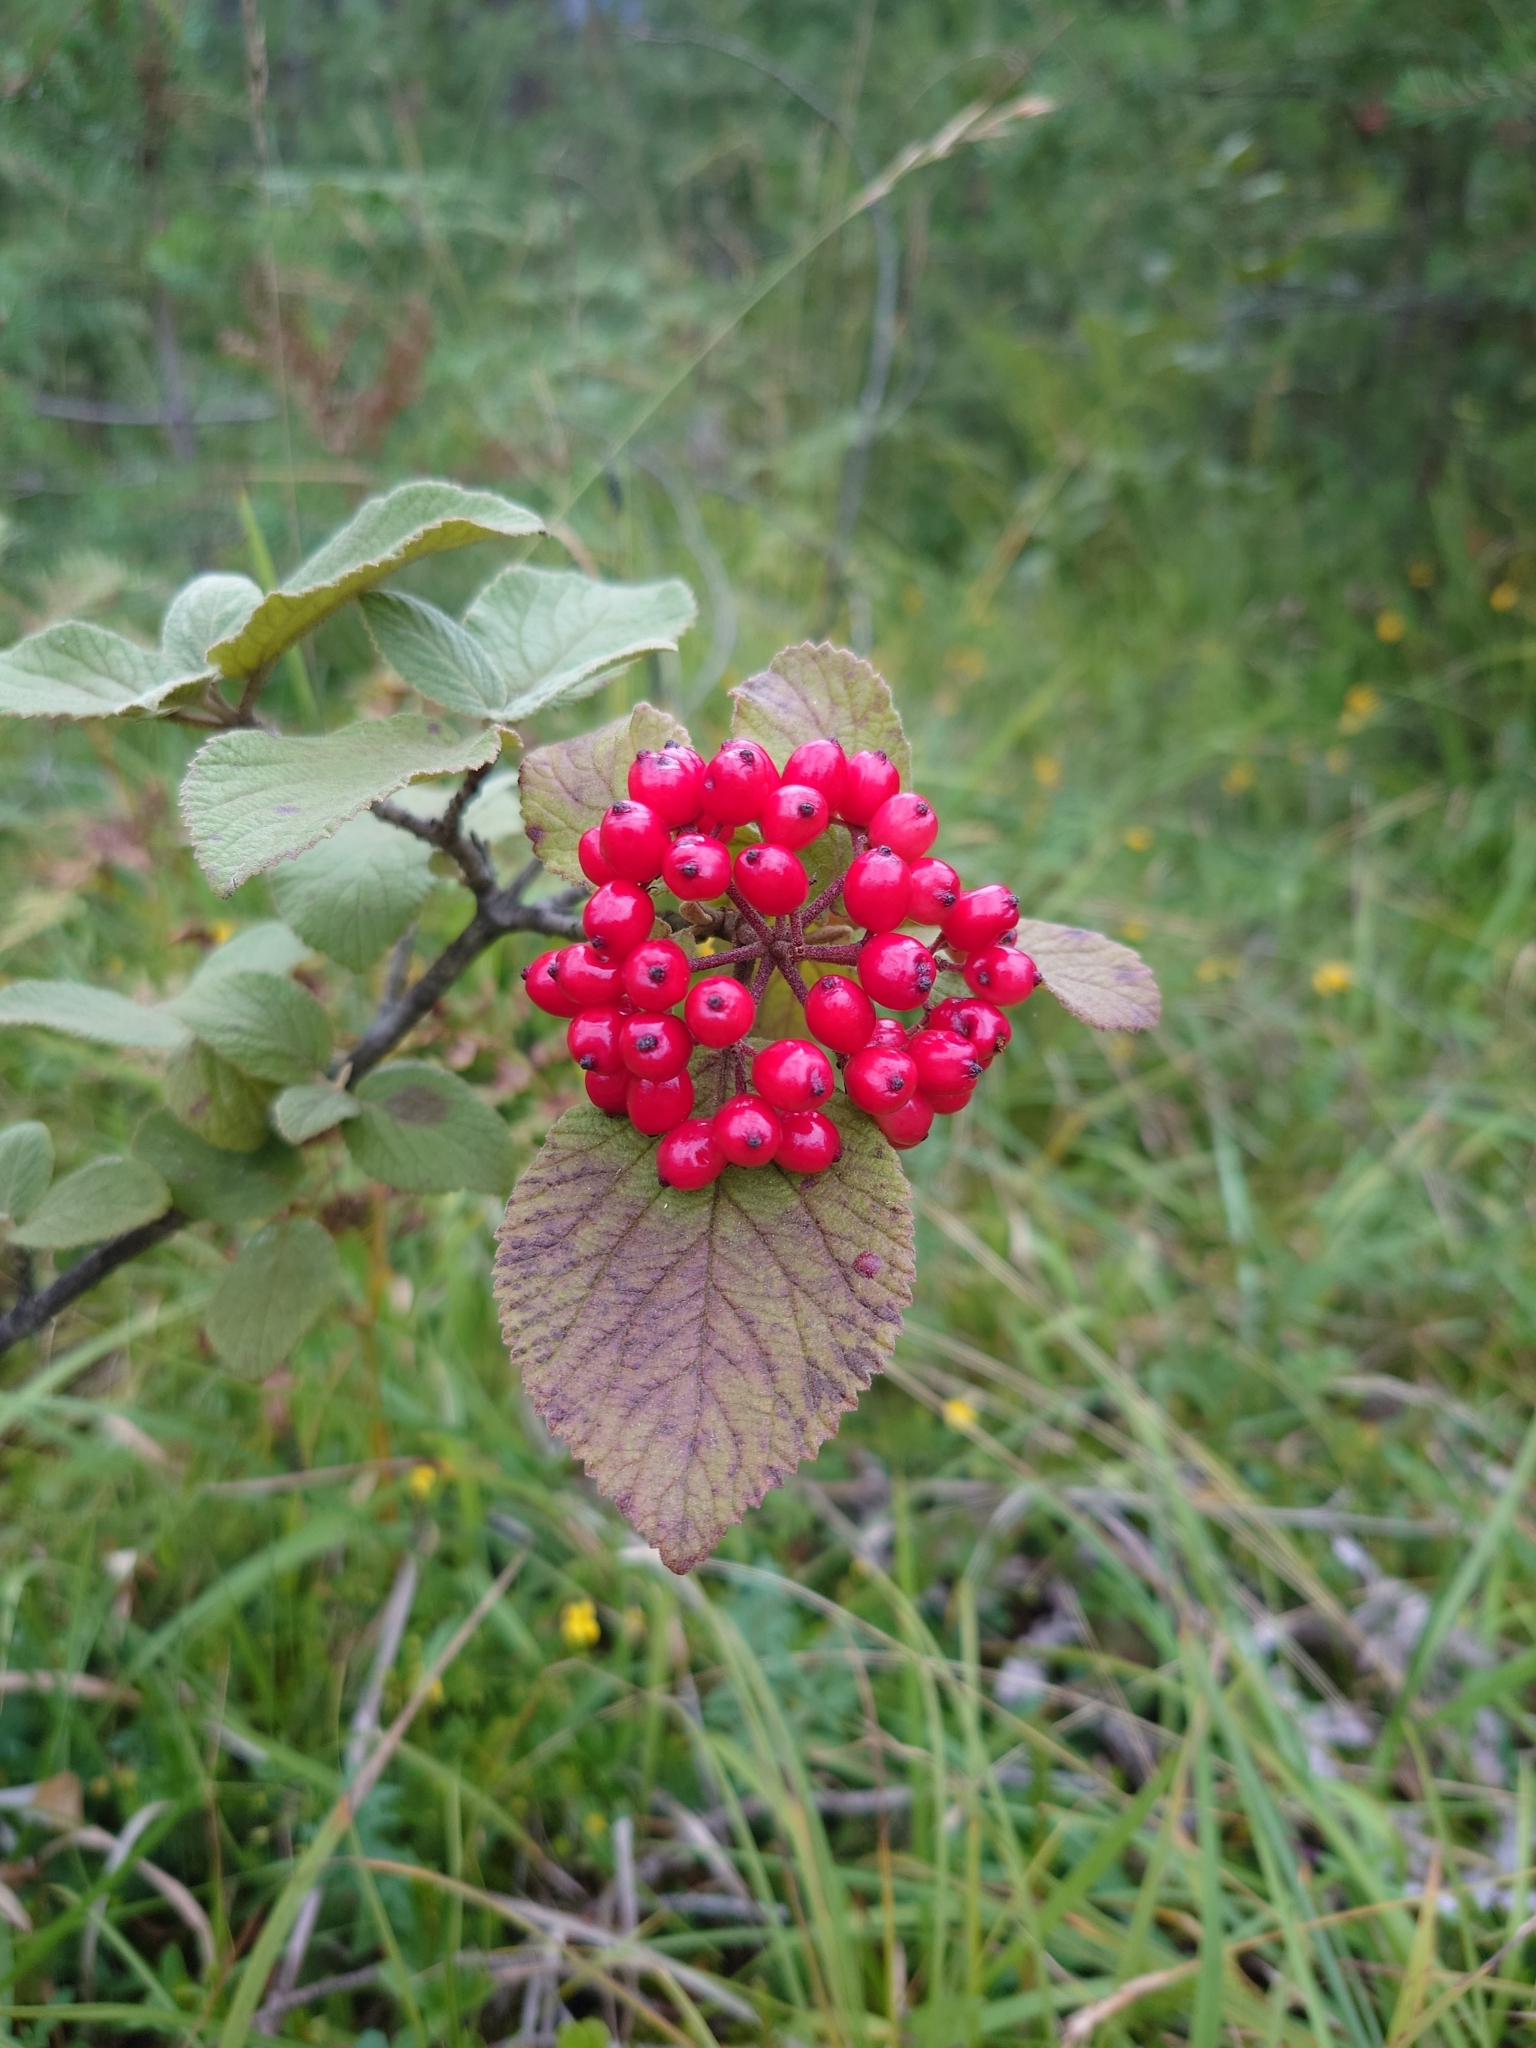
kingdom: Plantae
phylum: Tracheophyta
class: Magnoliopsida
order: Dipsacales
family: Viburnaceae
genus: Viburnum
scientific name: Viburnum lantana
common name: Wayfaring tree
